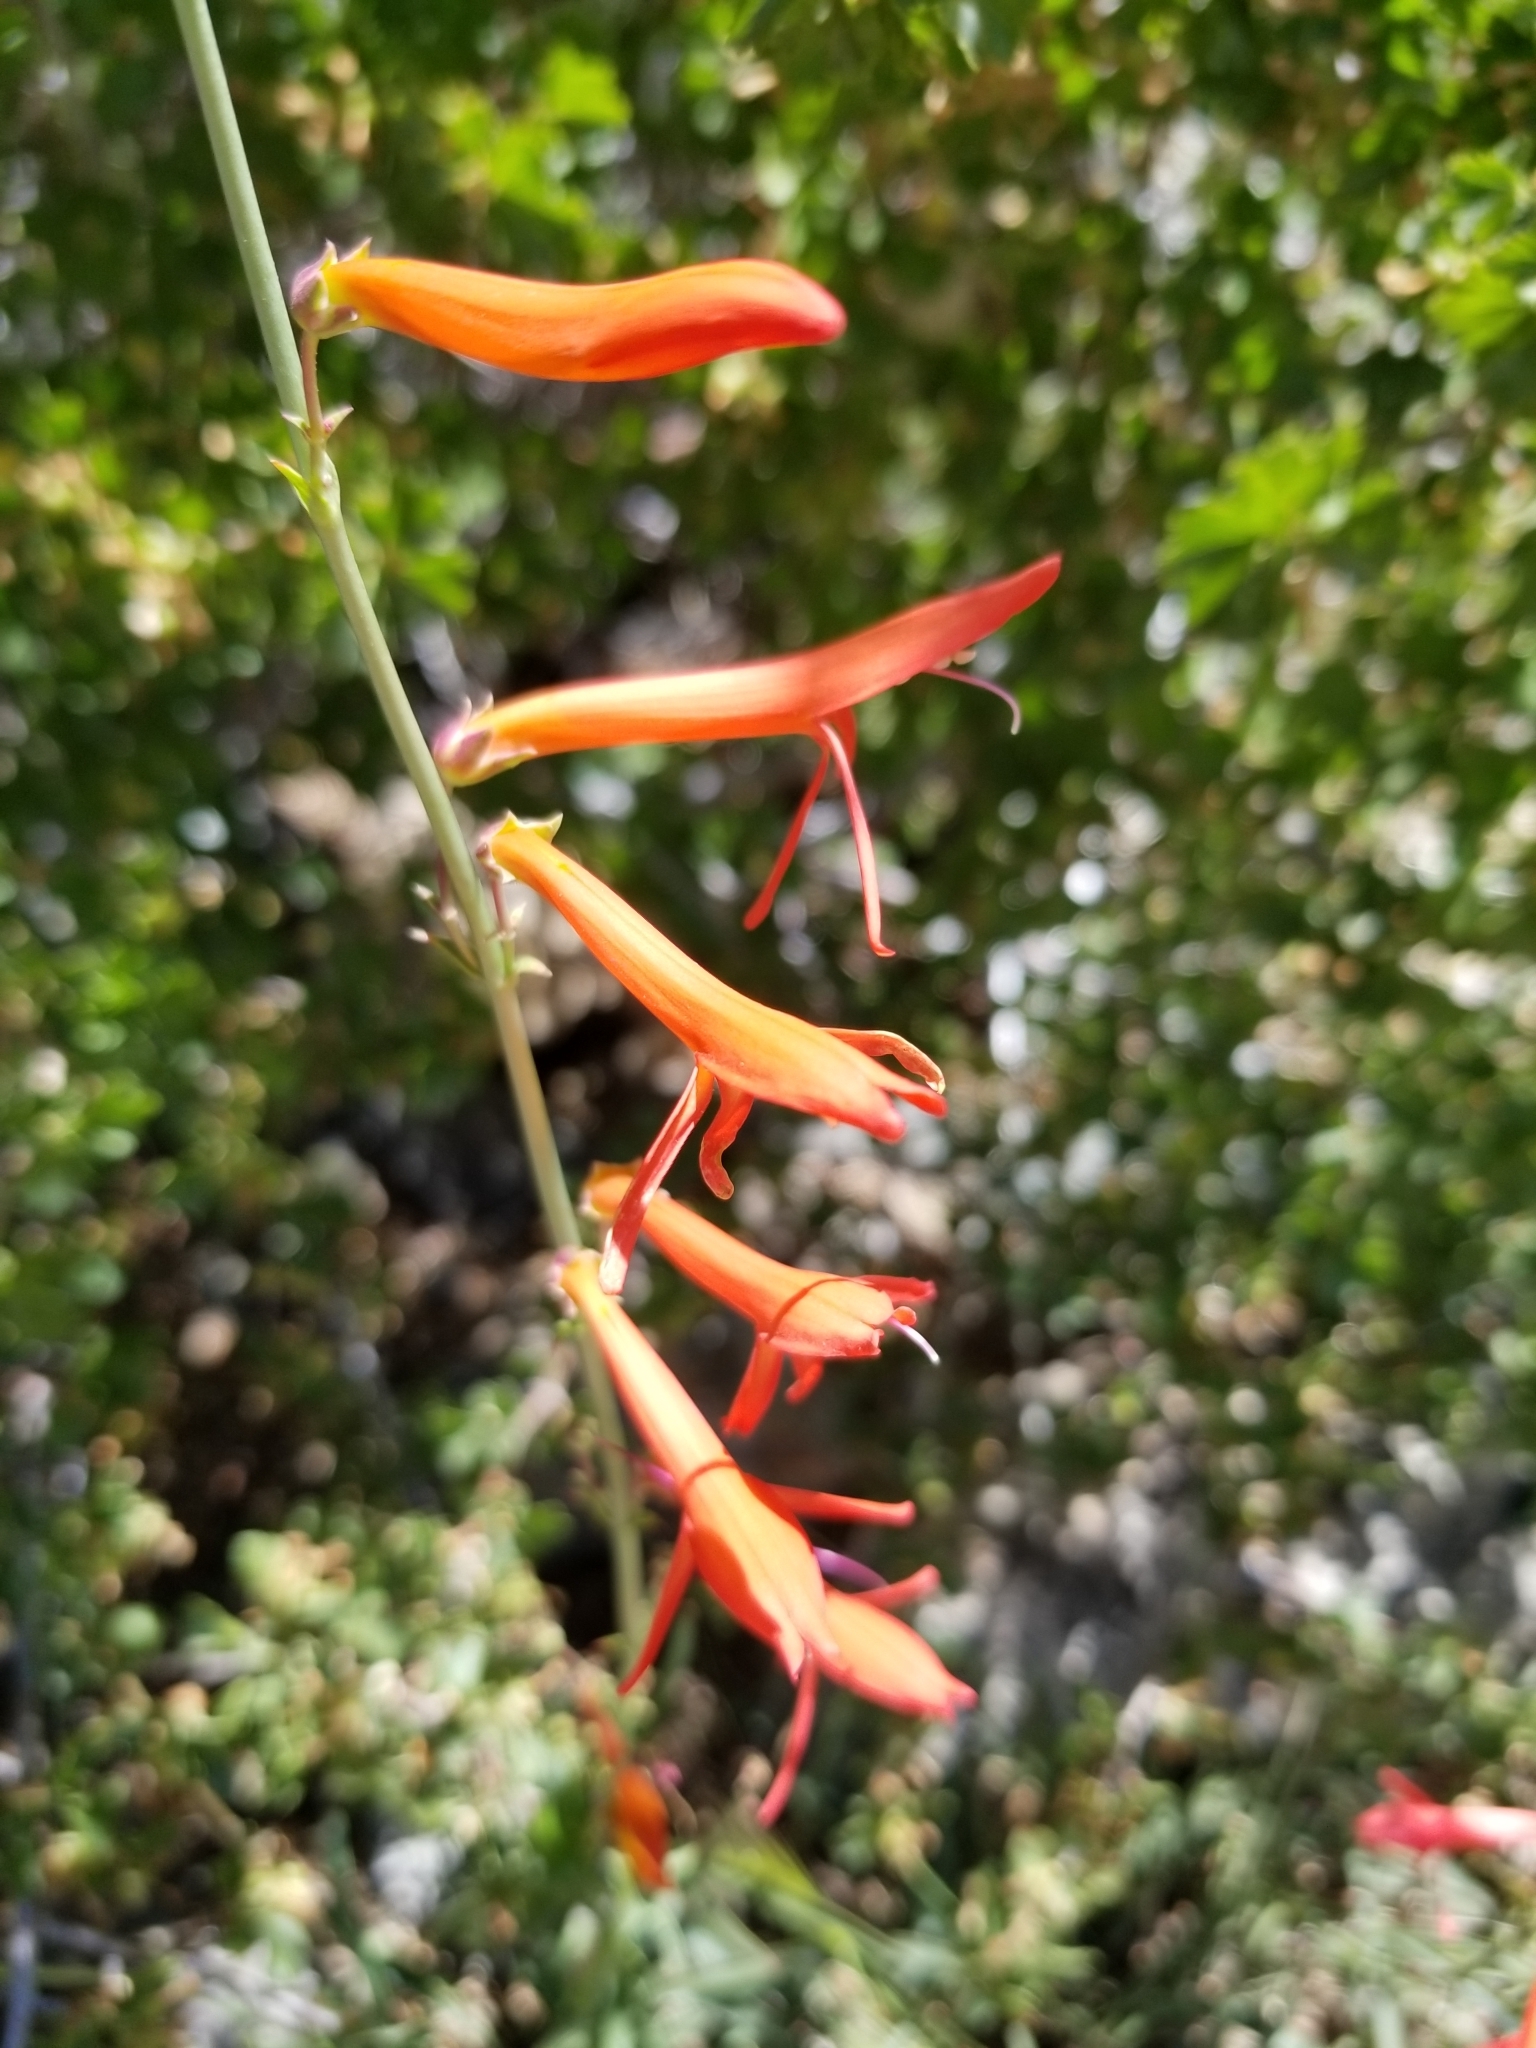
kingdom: Plantae
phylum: Tracheophyta
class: Magnoliopsida
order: Lamiales
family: Plantaginaceae
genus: Penstemon
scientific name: Penstemon labrosus
